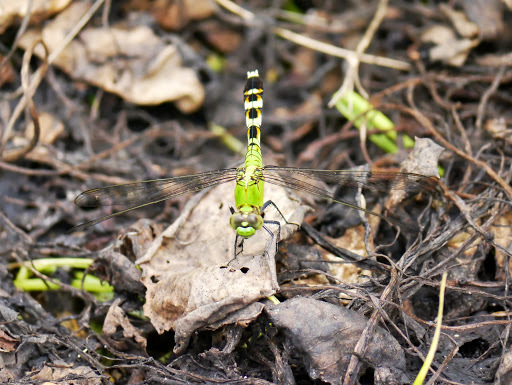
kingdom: Animalia
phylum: Arthropoda
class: Insecta
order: Odonata
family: Libellulidae
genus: Erythemis
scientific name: Erythemis simplicicollis
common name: Eastern pondhawk
